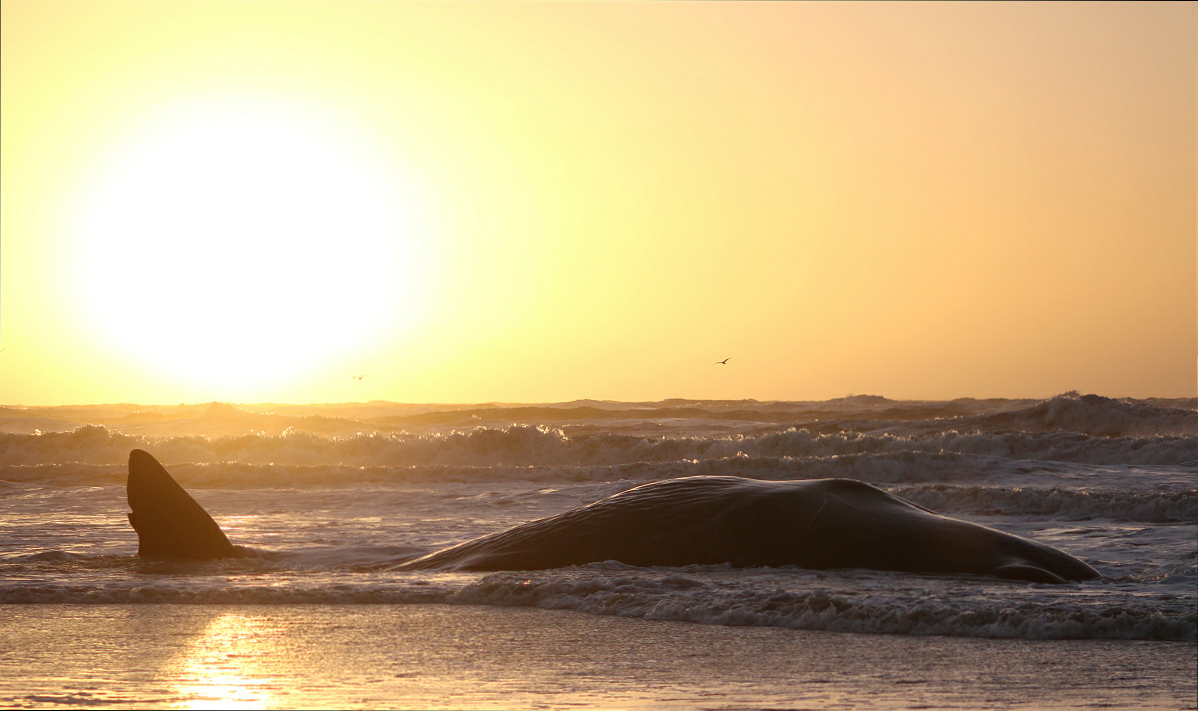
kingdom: Animalia
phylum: Chordata
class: Mammalia
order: Cetacea
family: Physeteridae
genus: Physeter
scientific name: Physeter macrocephalus
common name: Sperm whale
